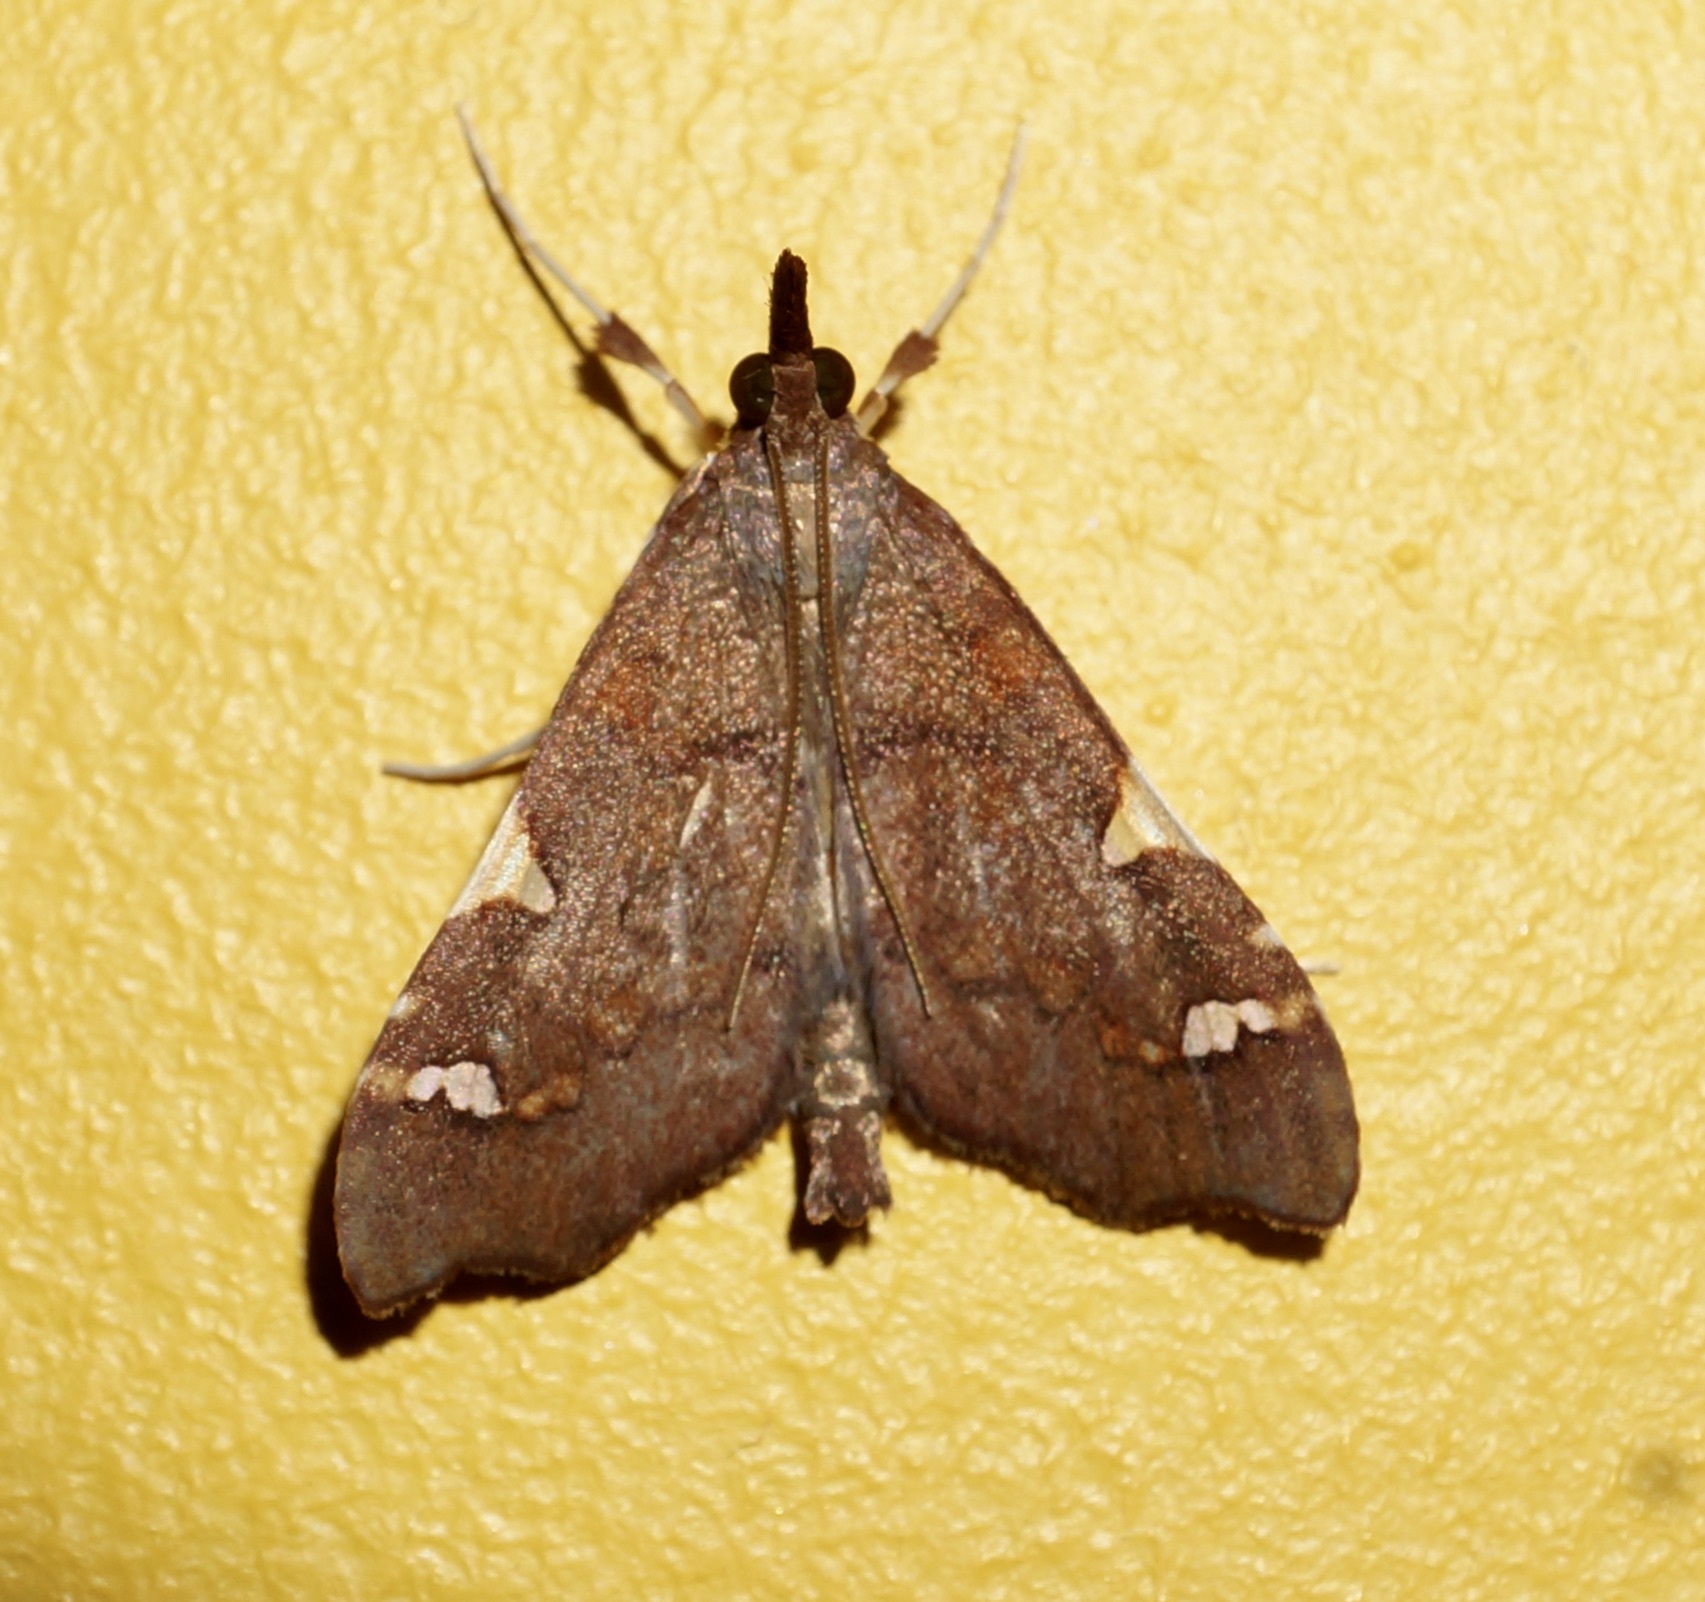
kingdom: Animalia
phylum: Arthropoda
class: Insecta
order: Lepidoptera
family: Crambidae
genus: Deana
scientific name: Deana hybreasalis
